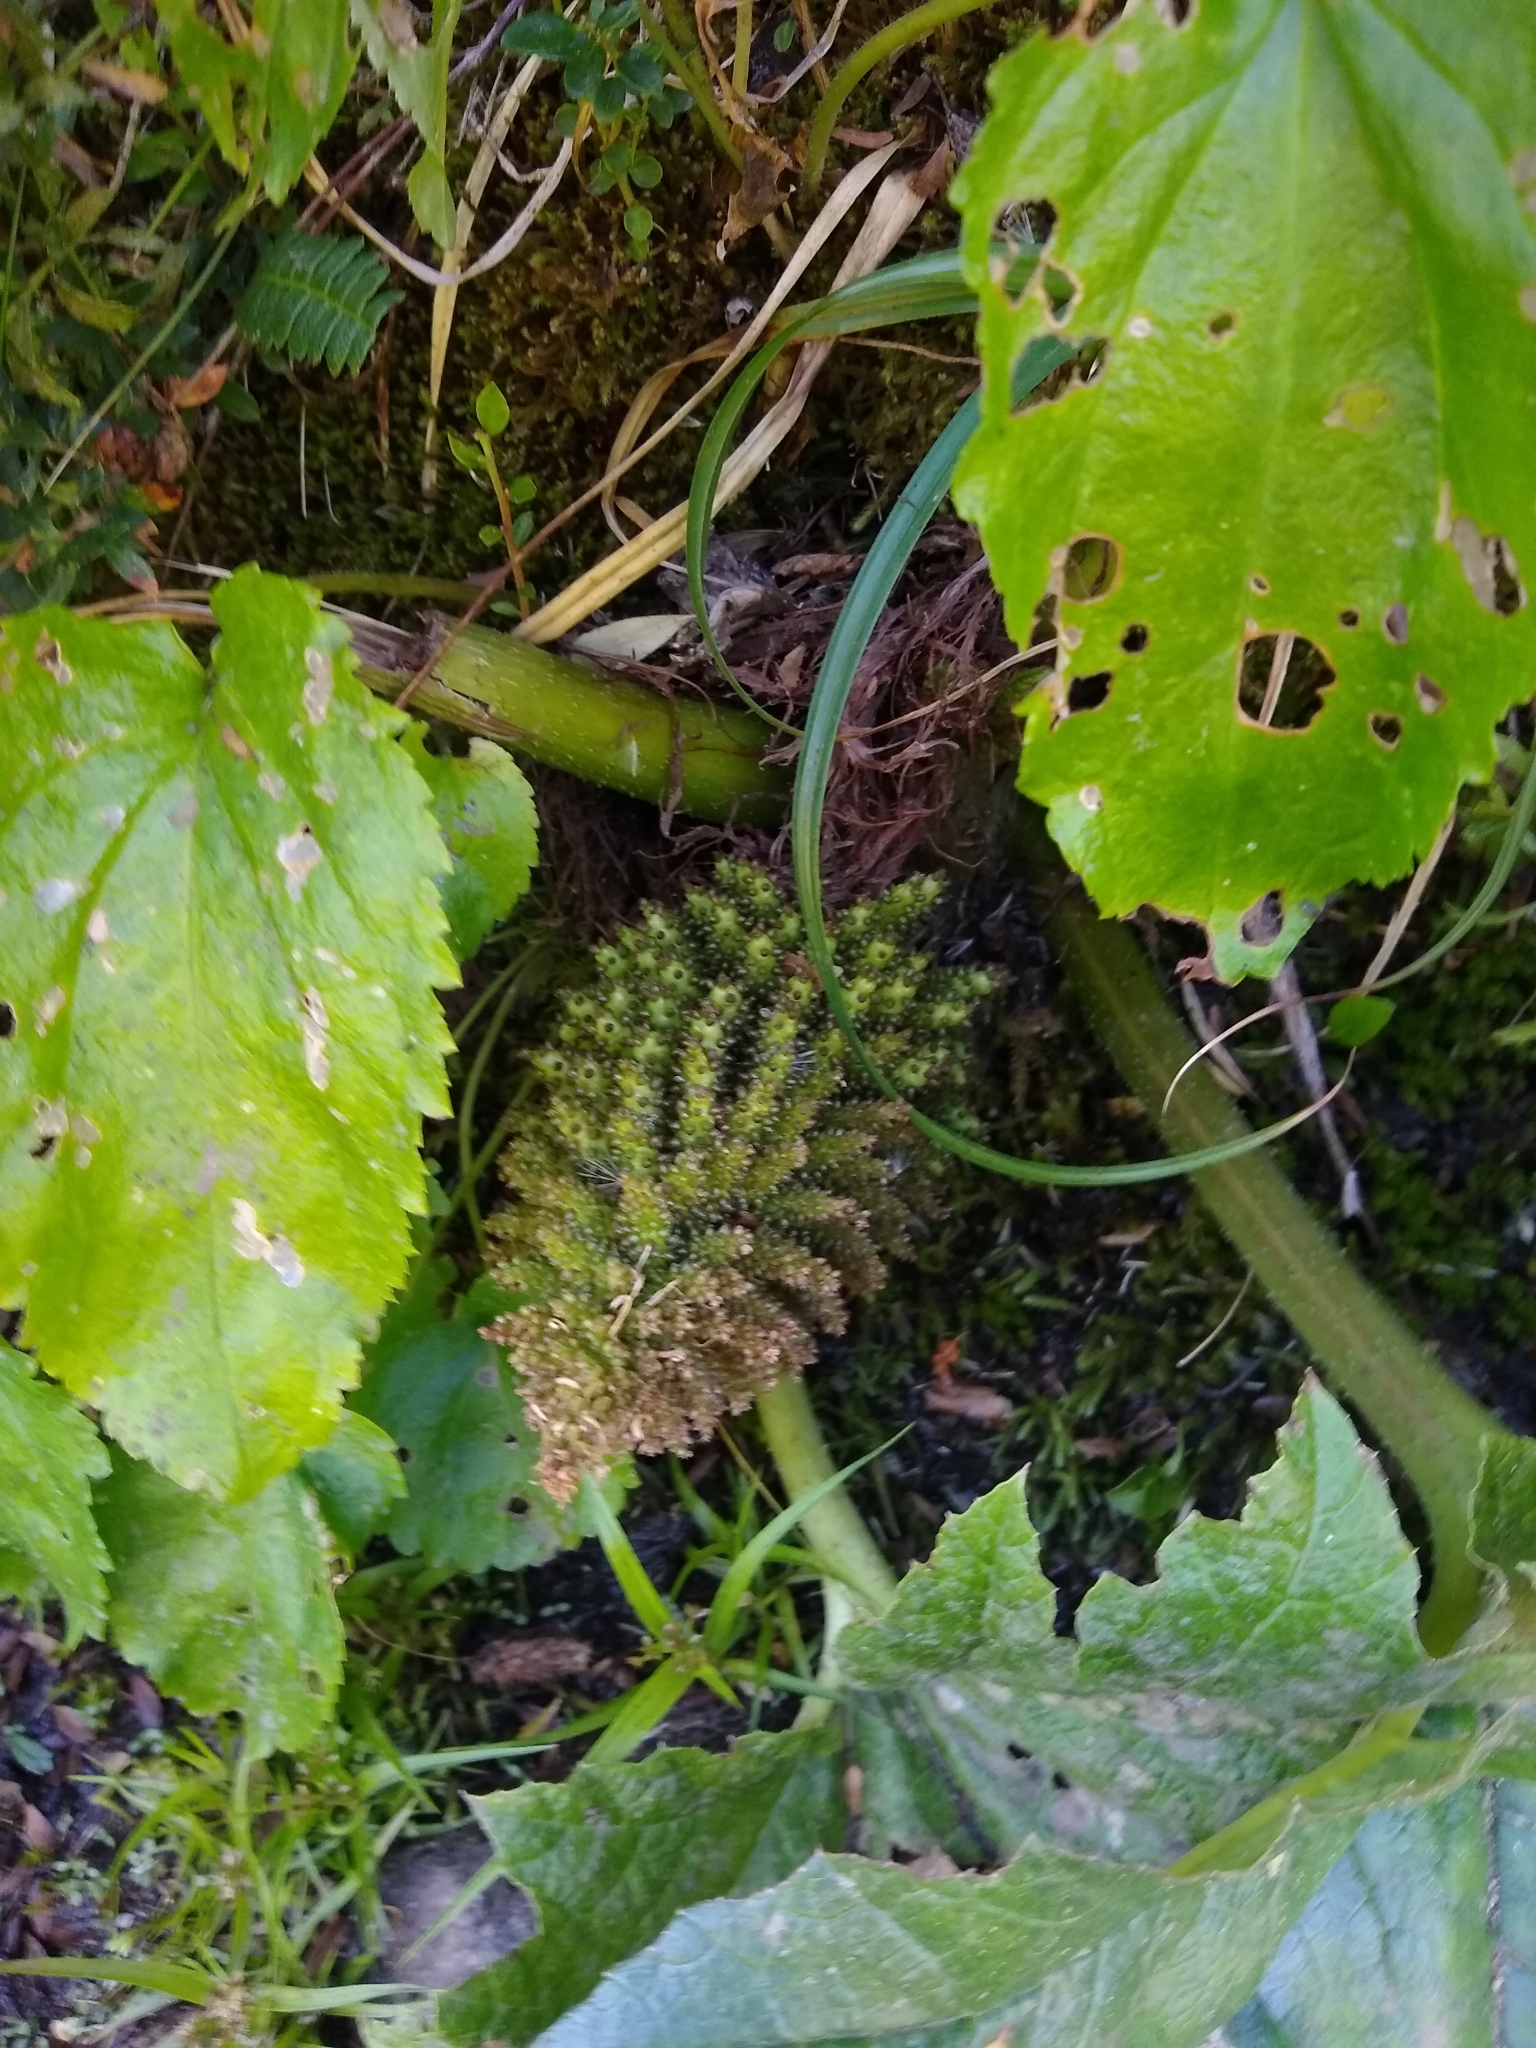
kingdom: Plantae
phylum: Tracheophyta
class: Magnoliopsida
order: Gunnerales
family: Gunneraceae
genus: Gunnera
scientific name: Gunnera tinctoria
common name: Giant-rhubarb
